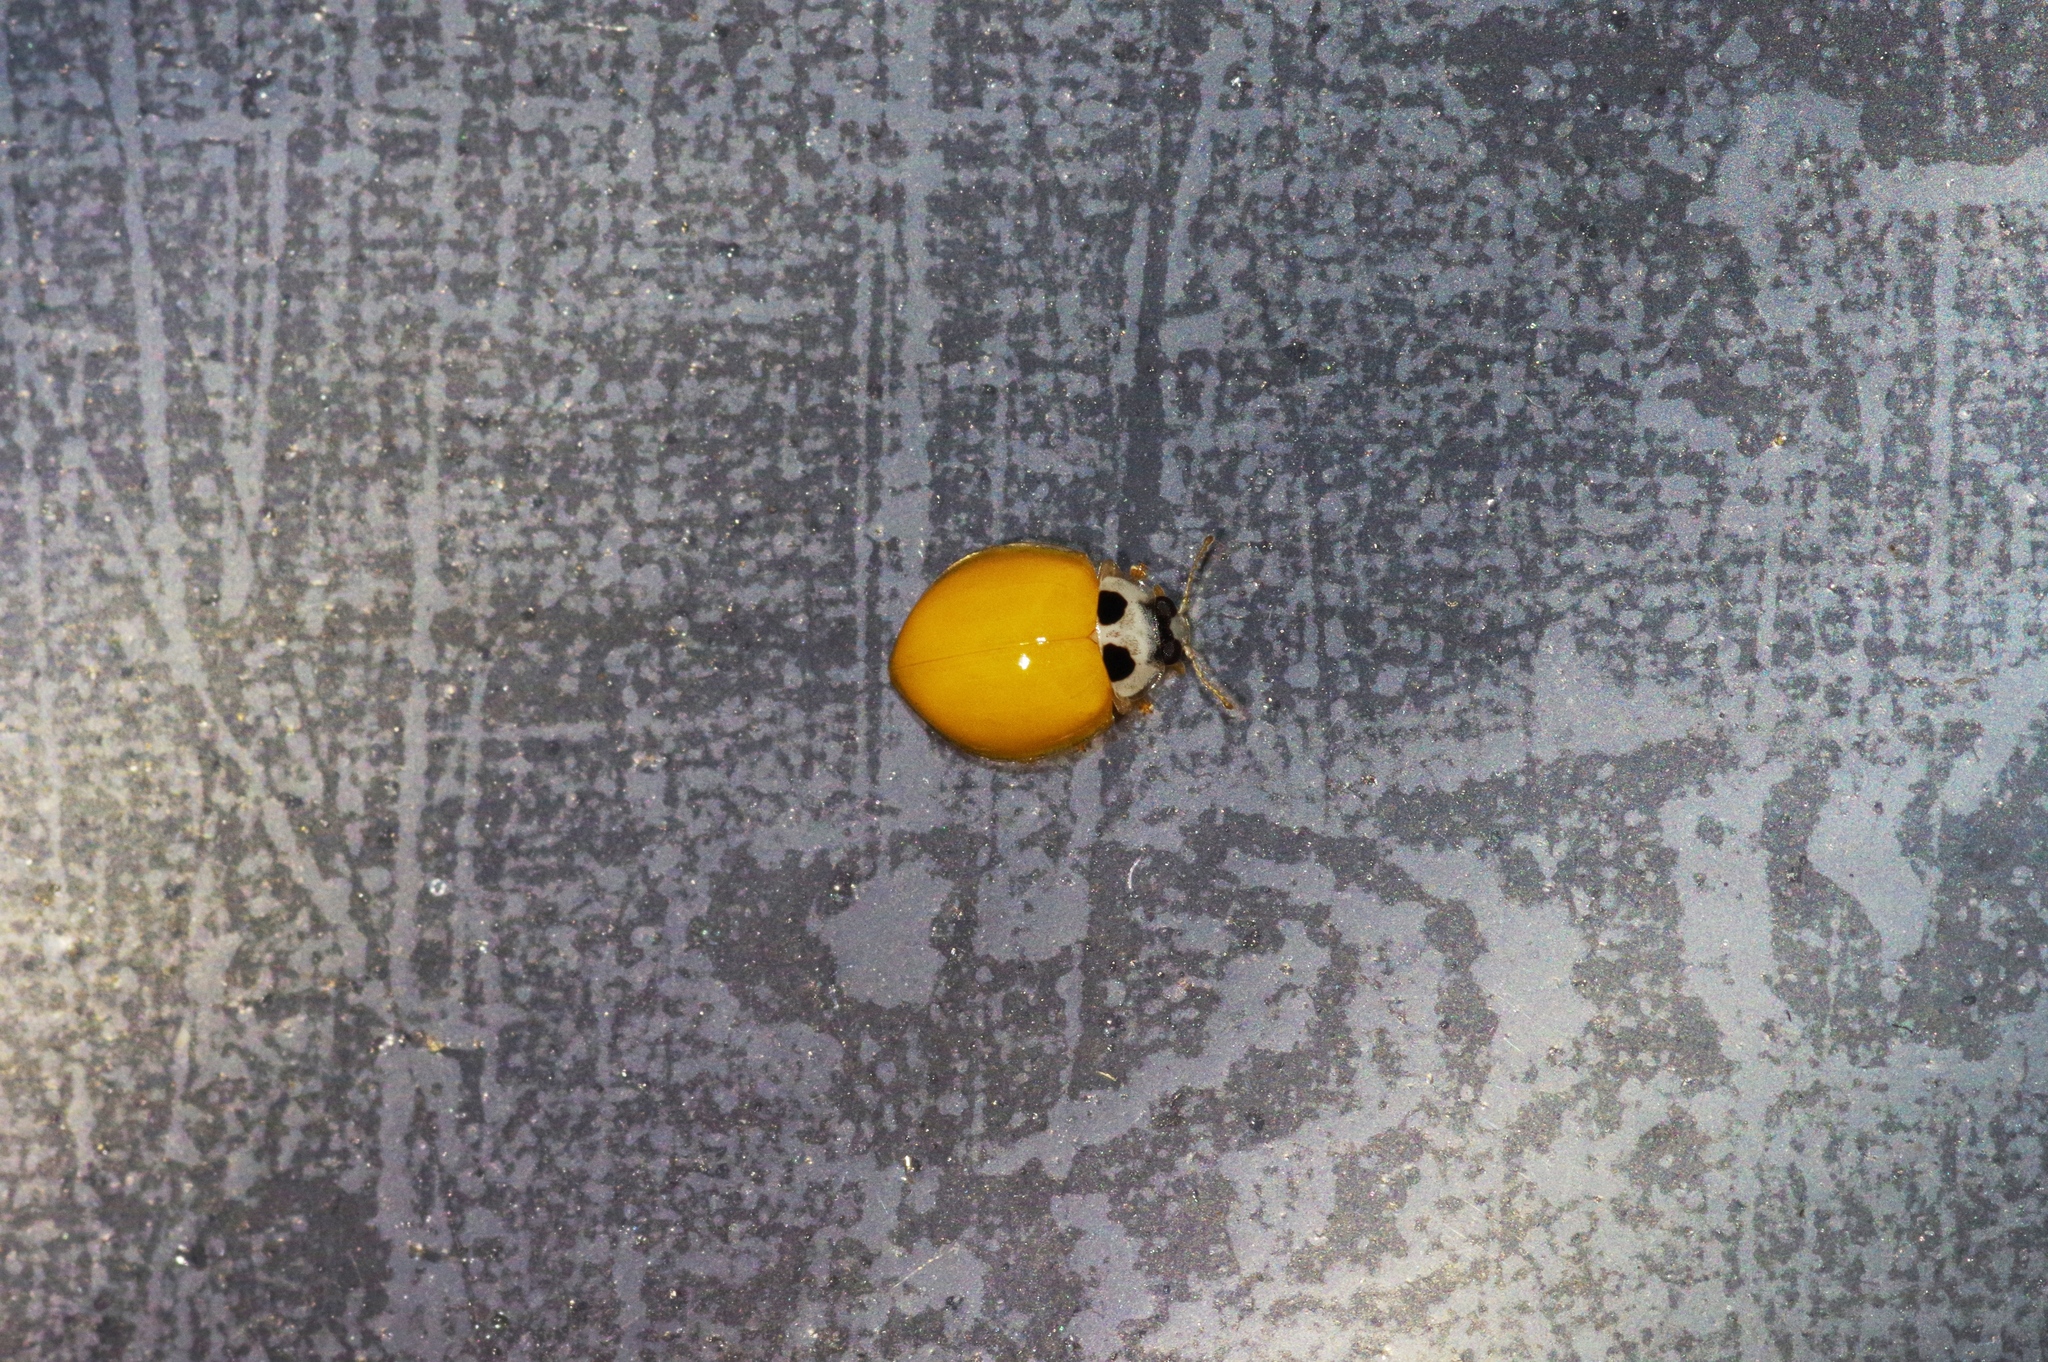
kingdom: Animalia
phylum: Arthropoda
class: Insecta
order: Coleoptera
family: Coccinellidae
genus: Illeis
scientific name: Illeis koebelei
